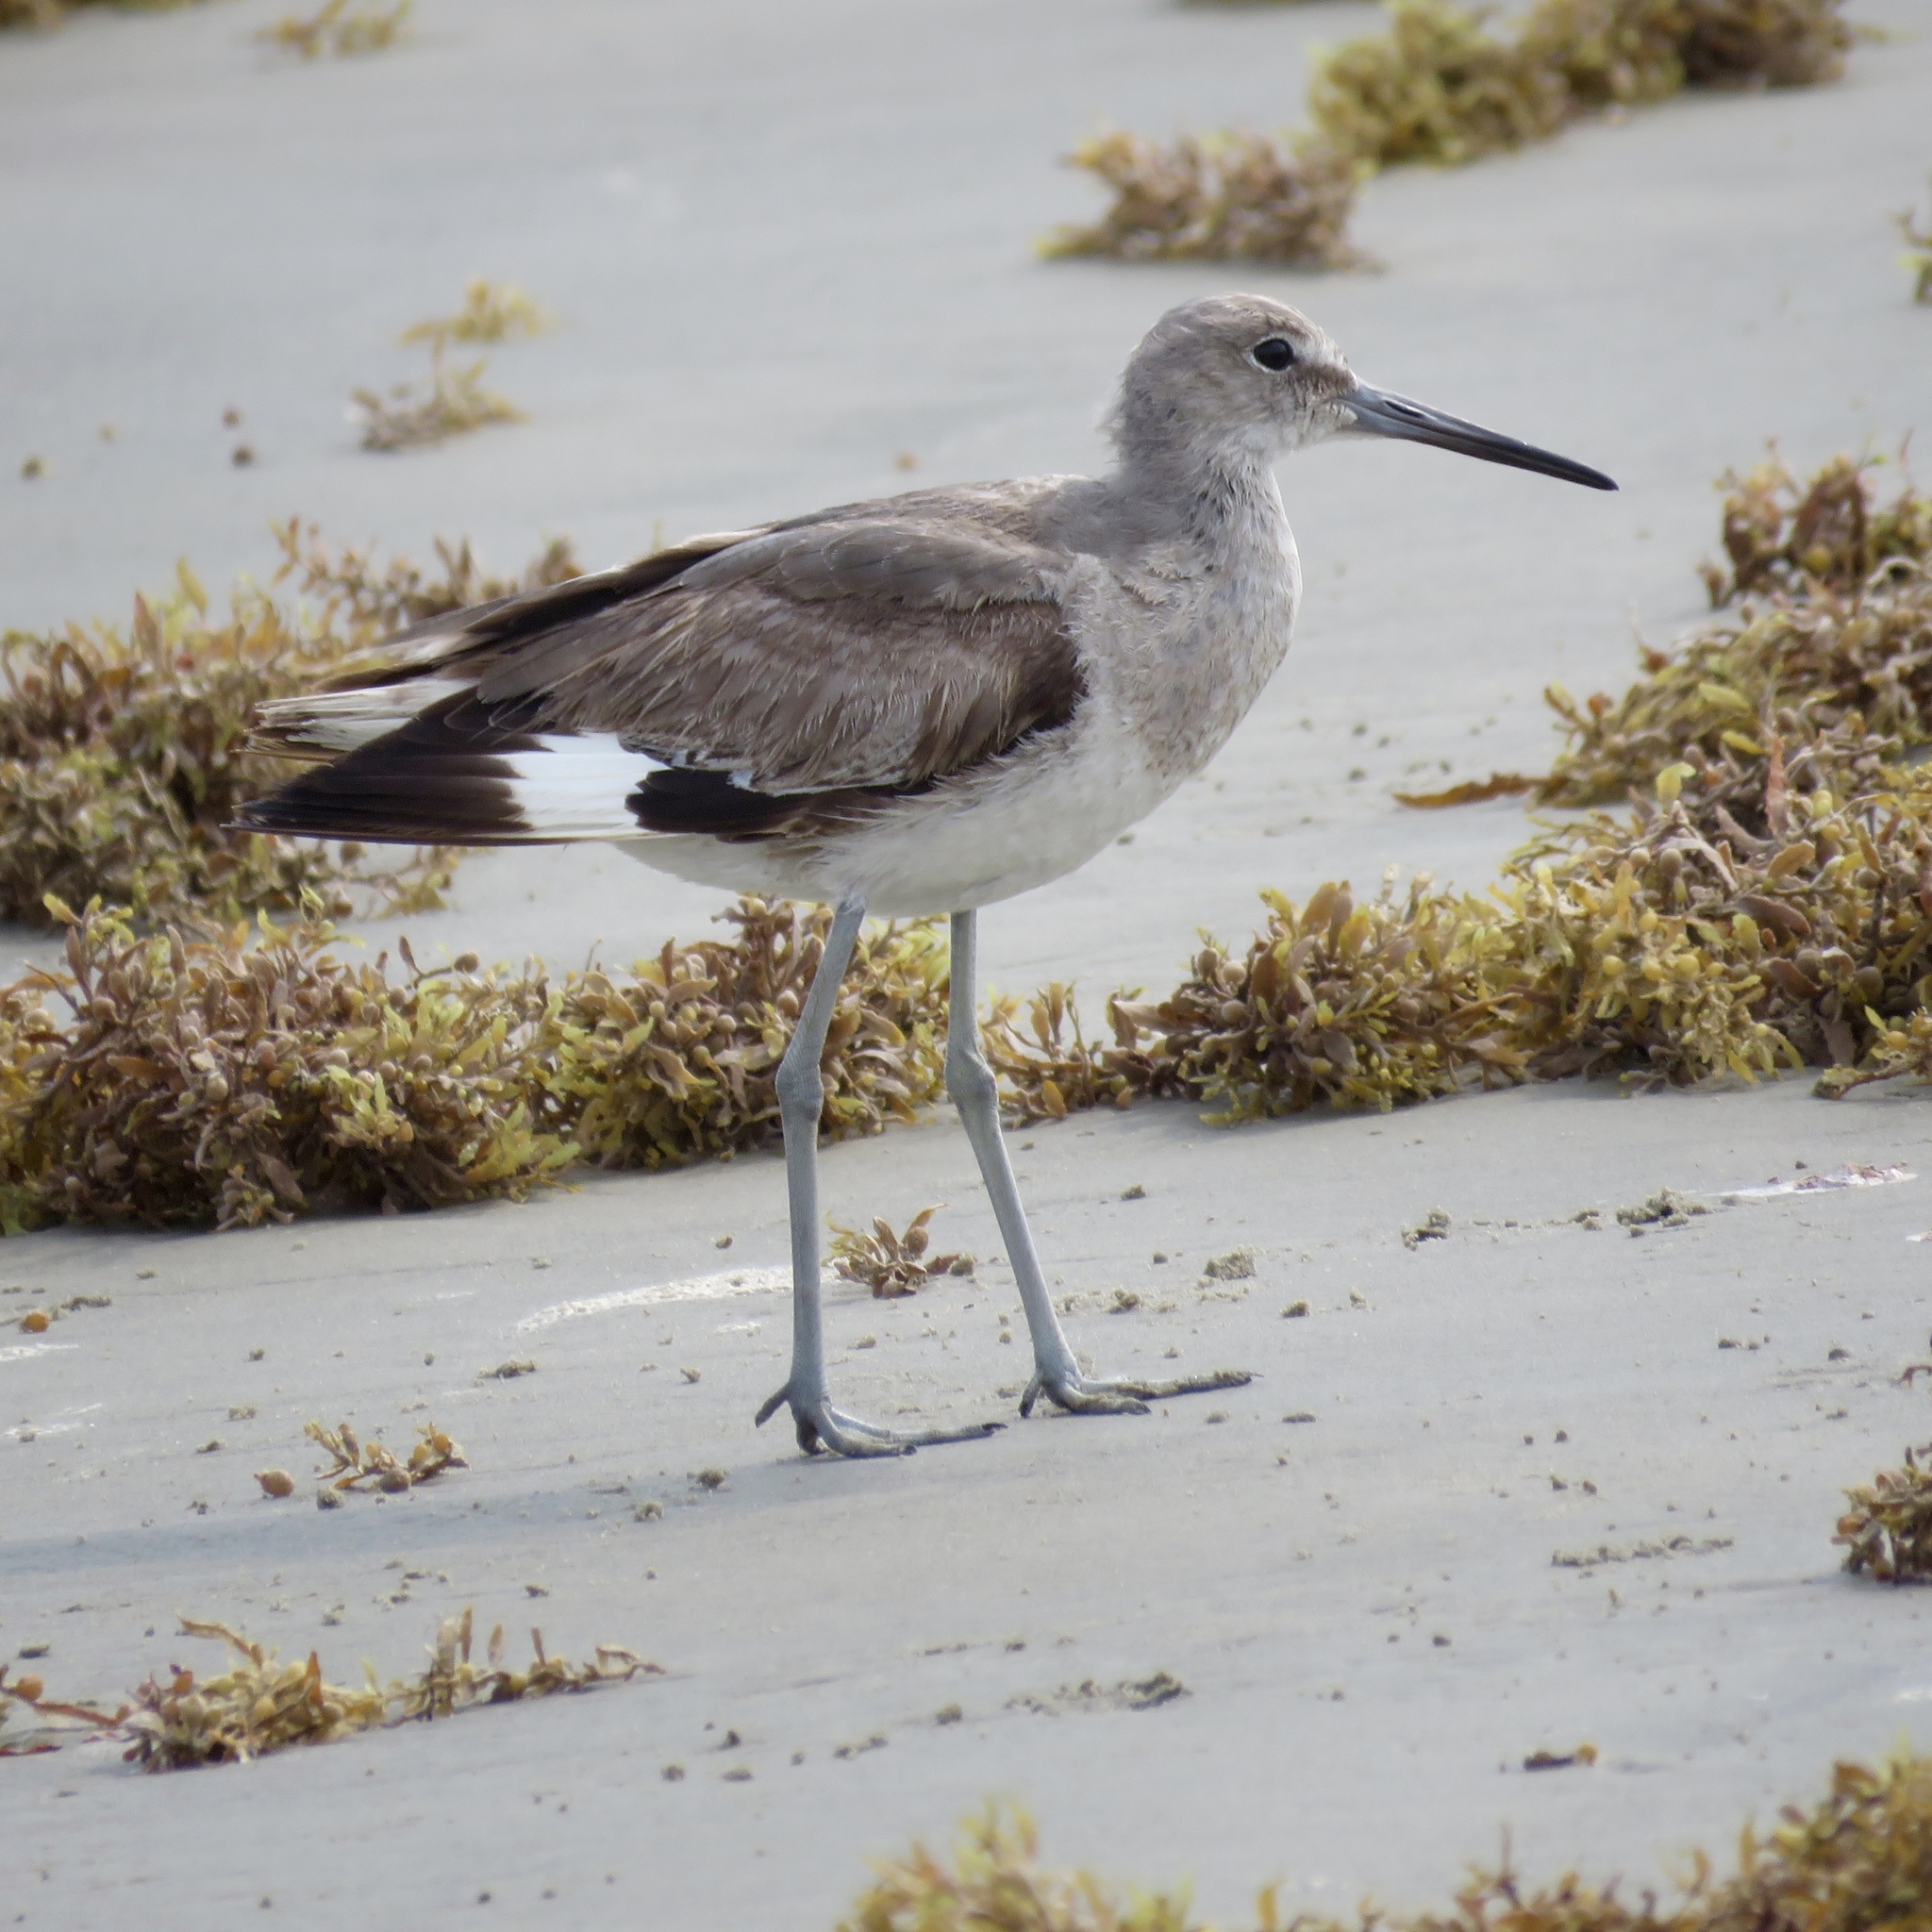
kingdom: Animalia
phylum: Chordata
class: Aves
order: Charadriiformes
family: Scolopacidae
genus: Tringa
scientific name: Tringa semipalmata
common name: Willet
